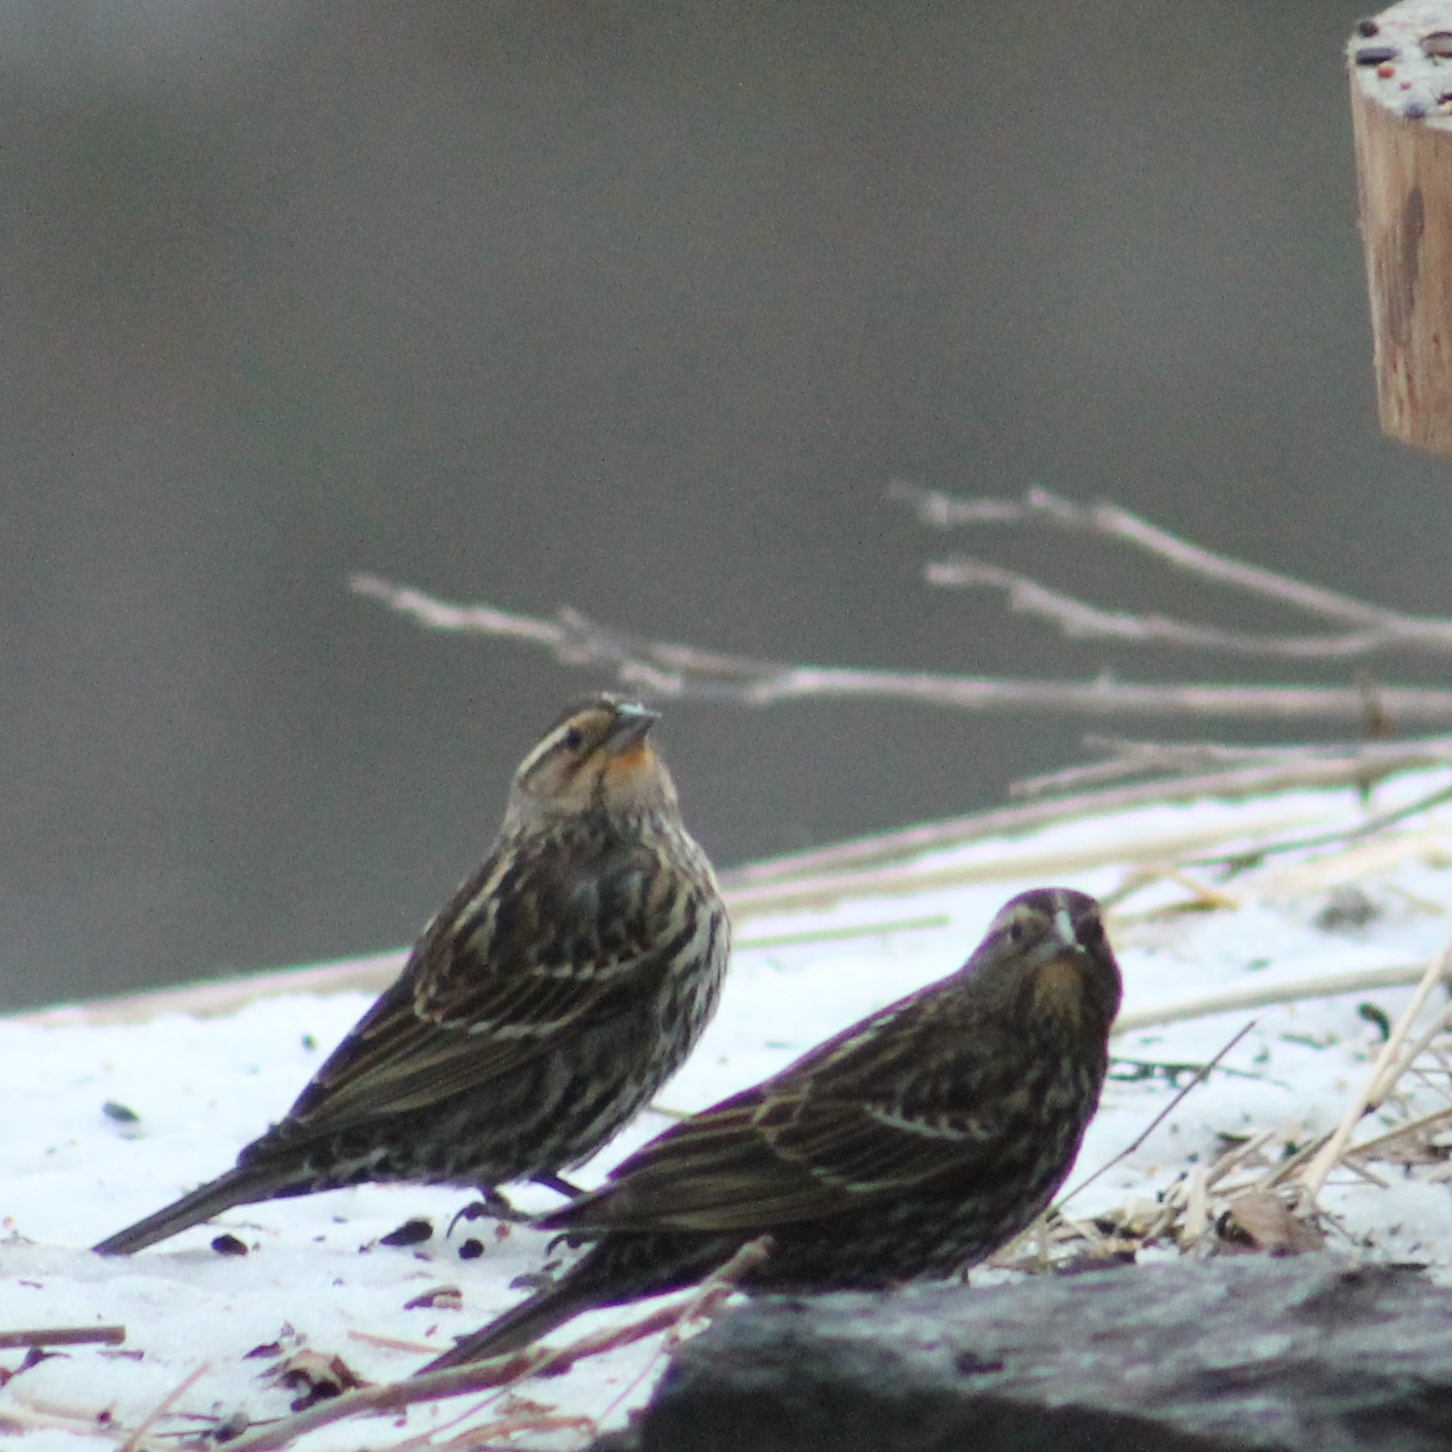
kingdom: Animalia
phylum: Chordata
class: Aves
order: Passeriformes
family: Icteridae
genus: Agelaius
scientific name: Agelaius phoeniceus
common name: Red-winged blackbird
